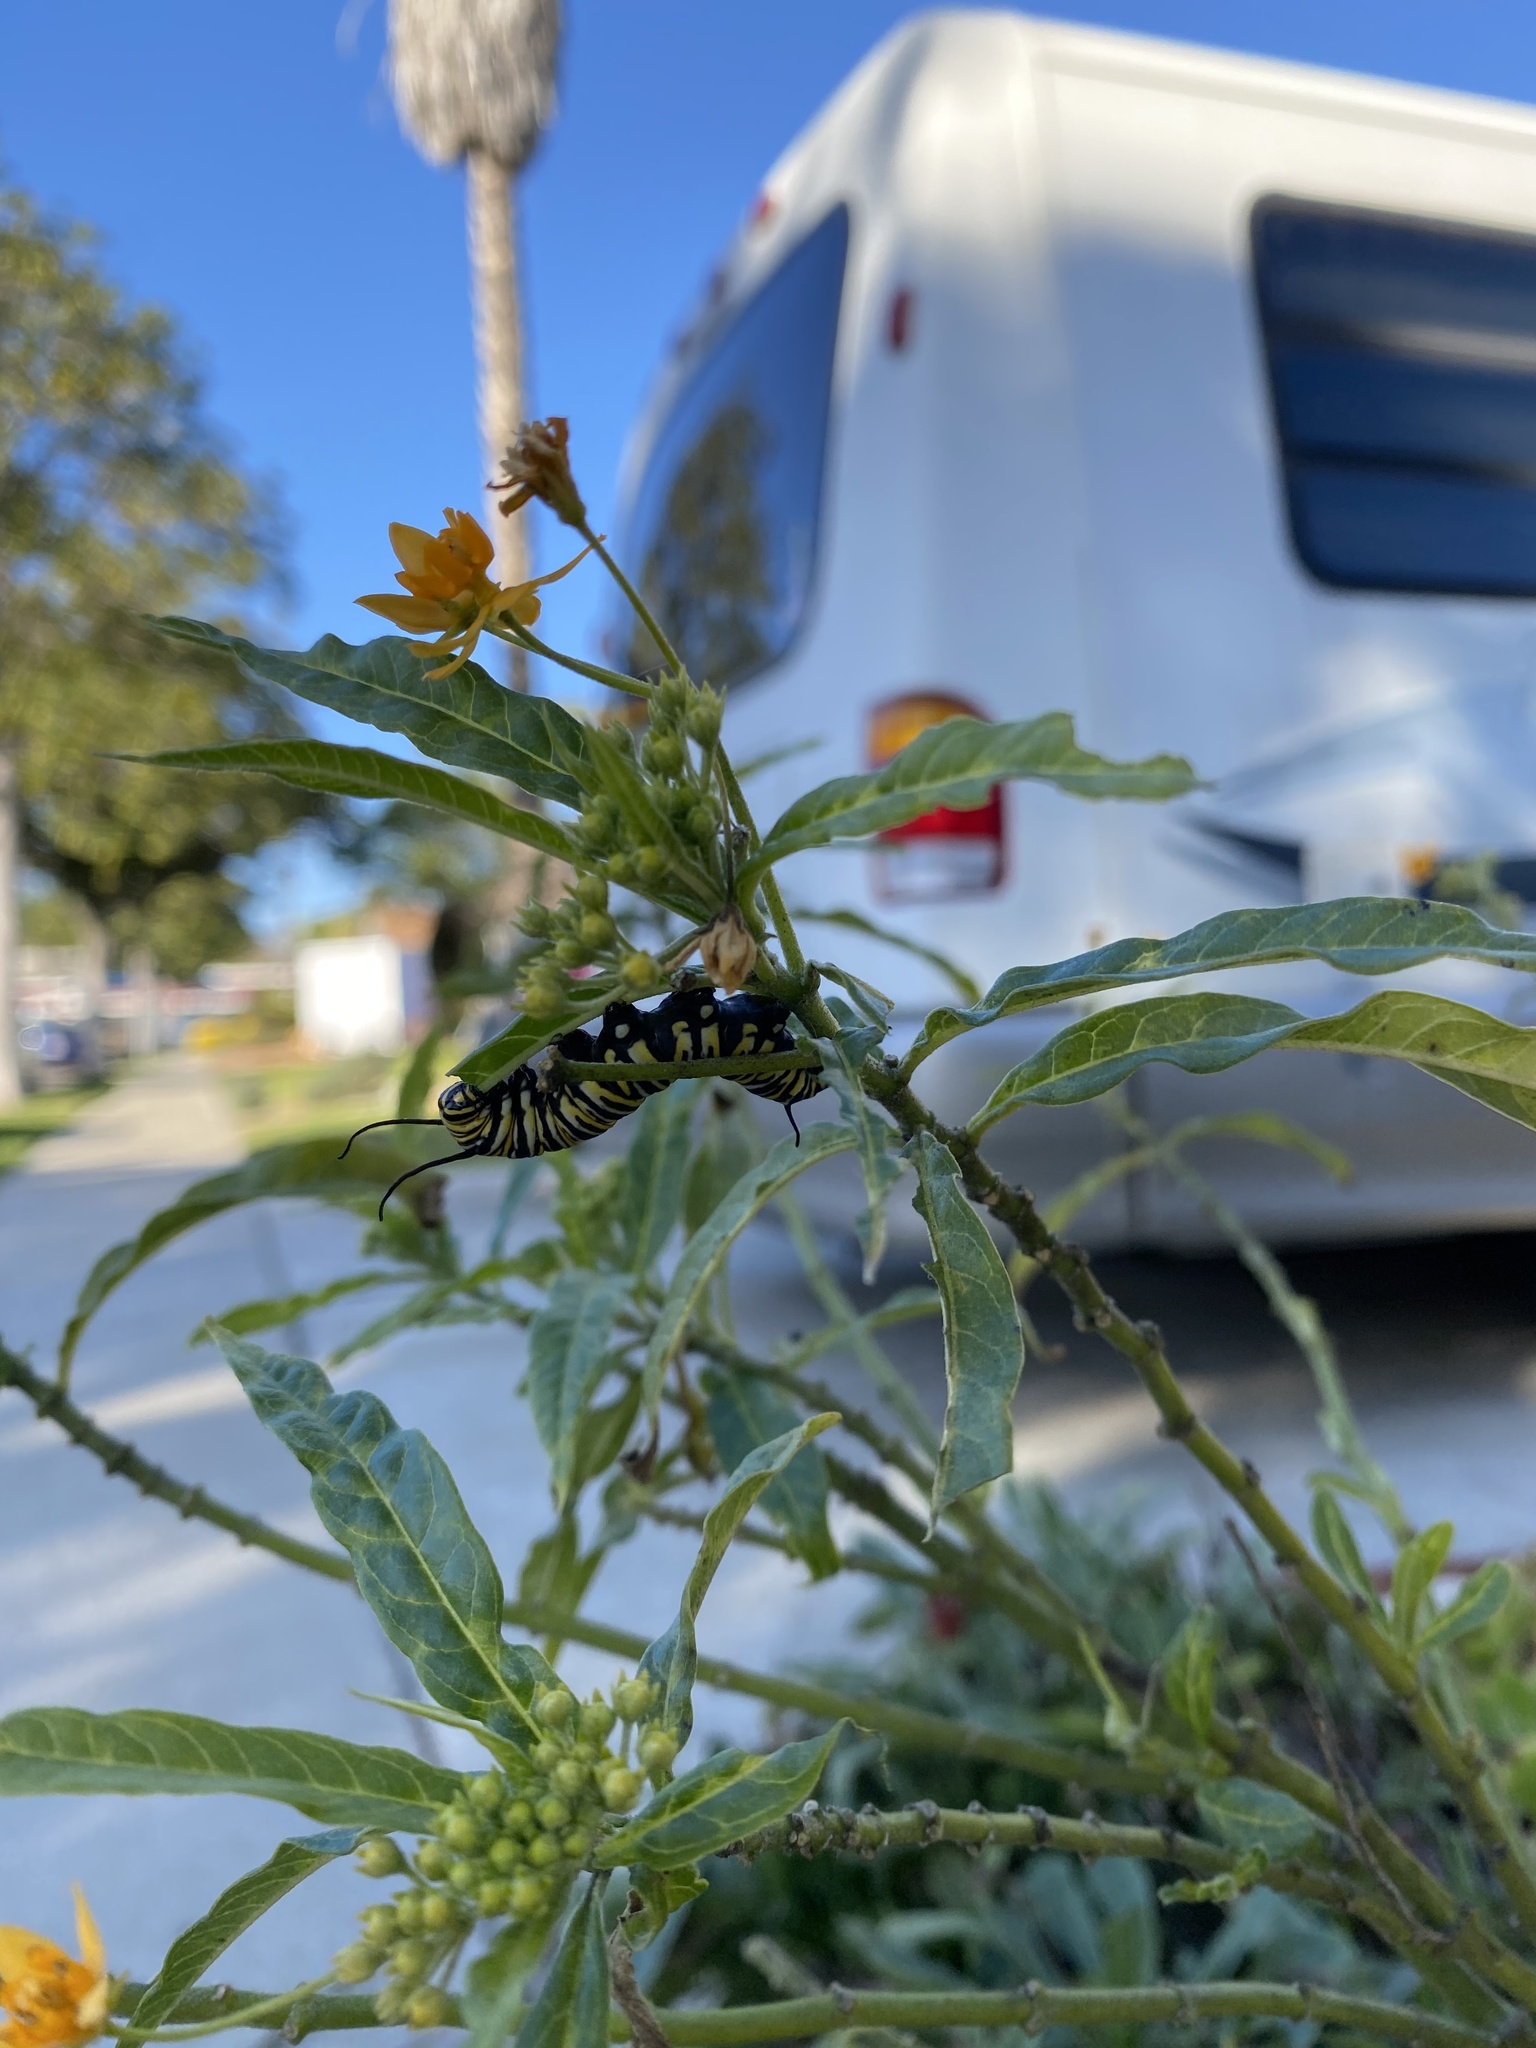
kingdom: Animalia
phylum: Arthropoda
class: Insecta
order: Lepidoptera
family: Nymphalidae
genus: Danaus
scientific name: Danaus plexippus
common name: Monarch
